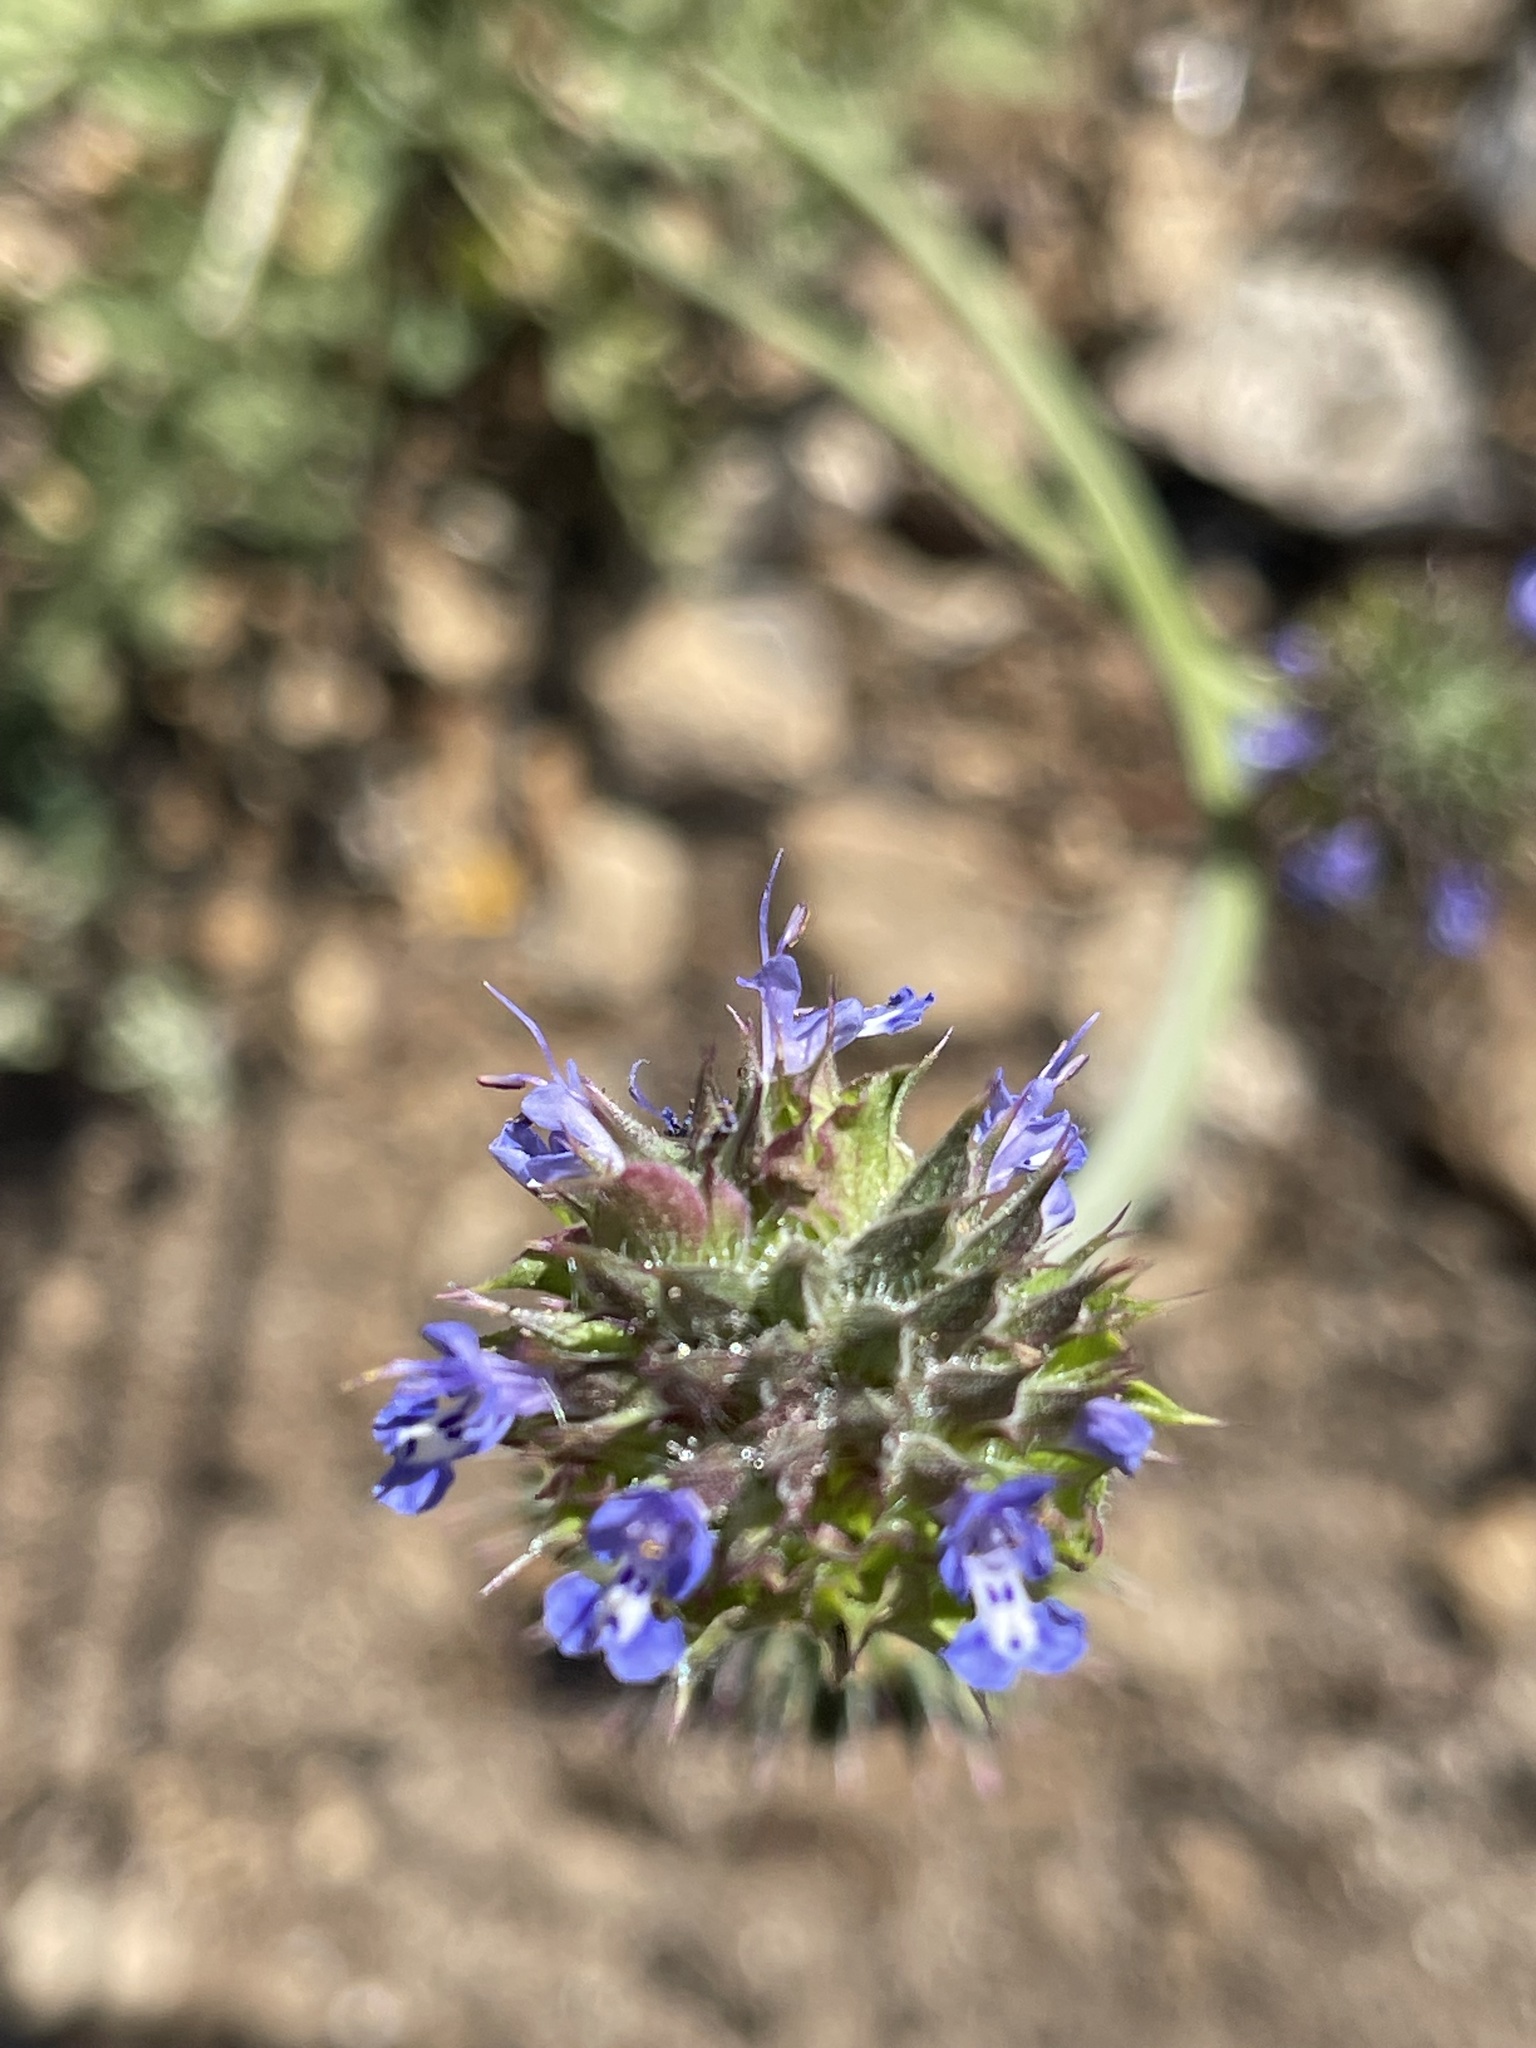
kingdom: Plantae
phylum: Tracheophyta
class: Magnoliopsida
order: Lamiales
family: Lamiaceae
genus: Salvia
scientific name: Salvia columbariae
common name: Chia
